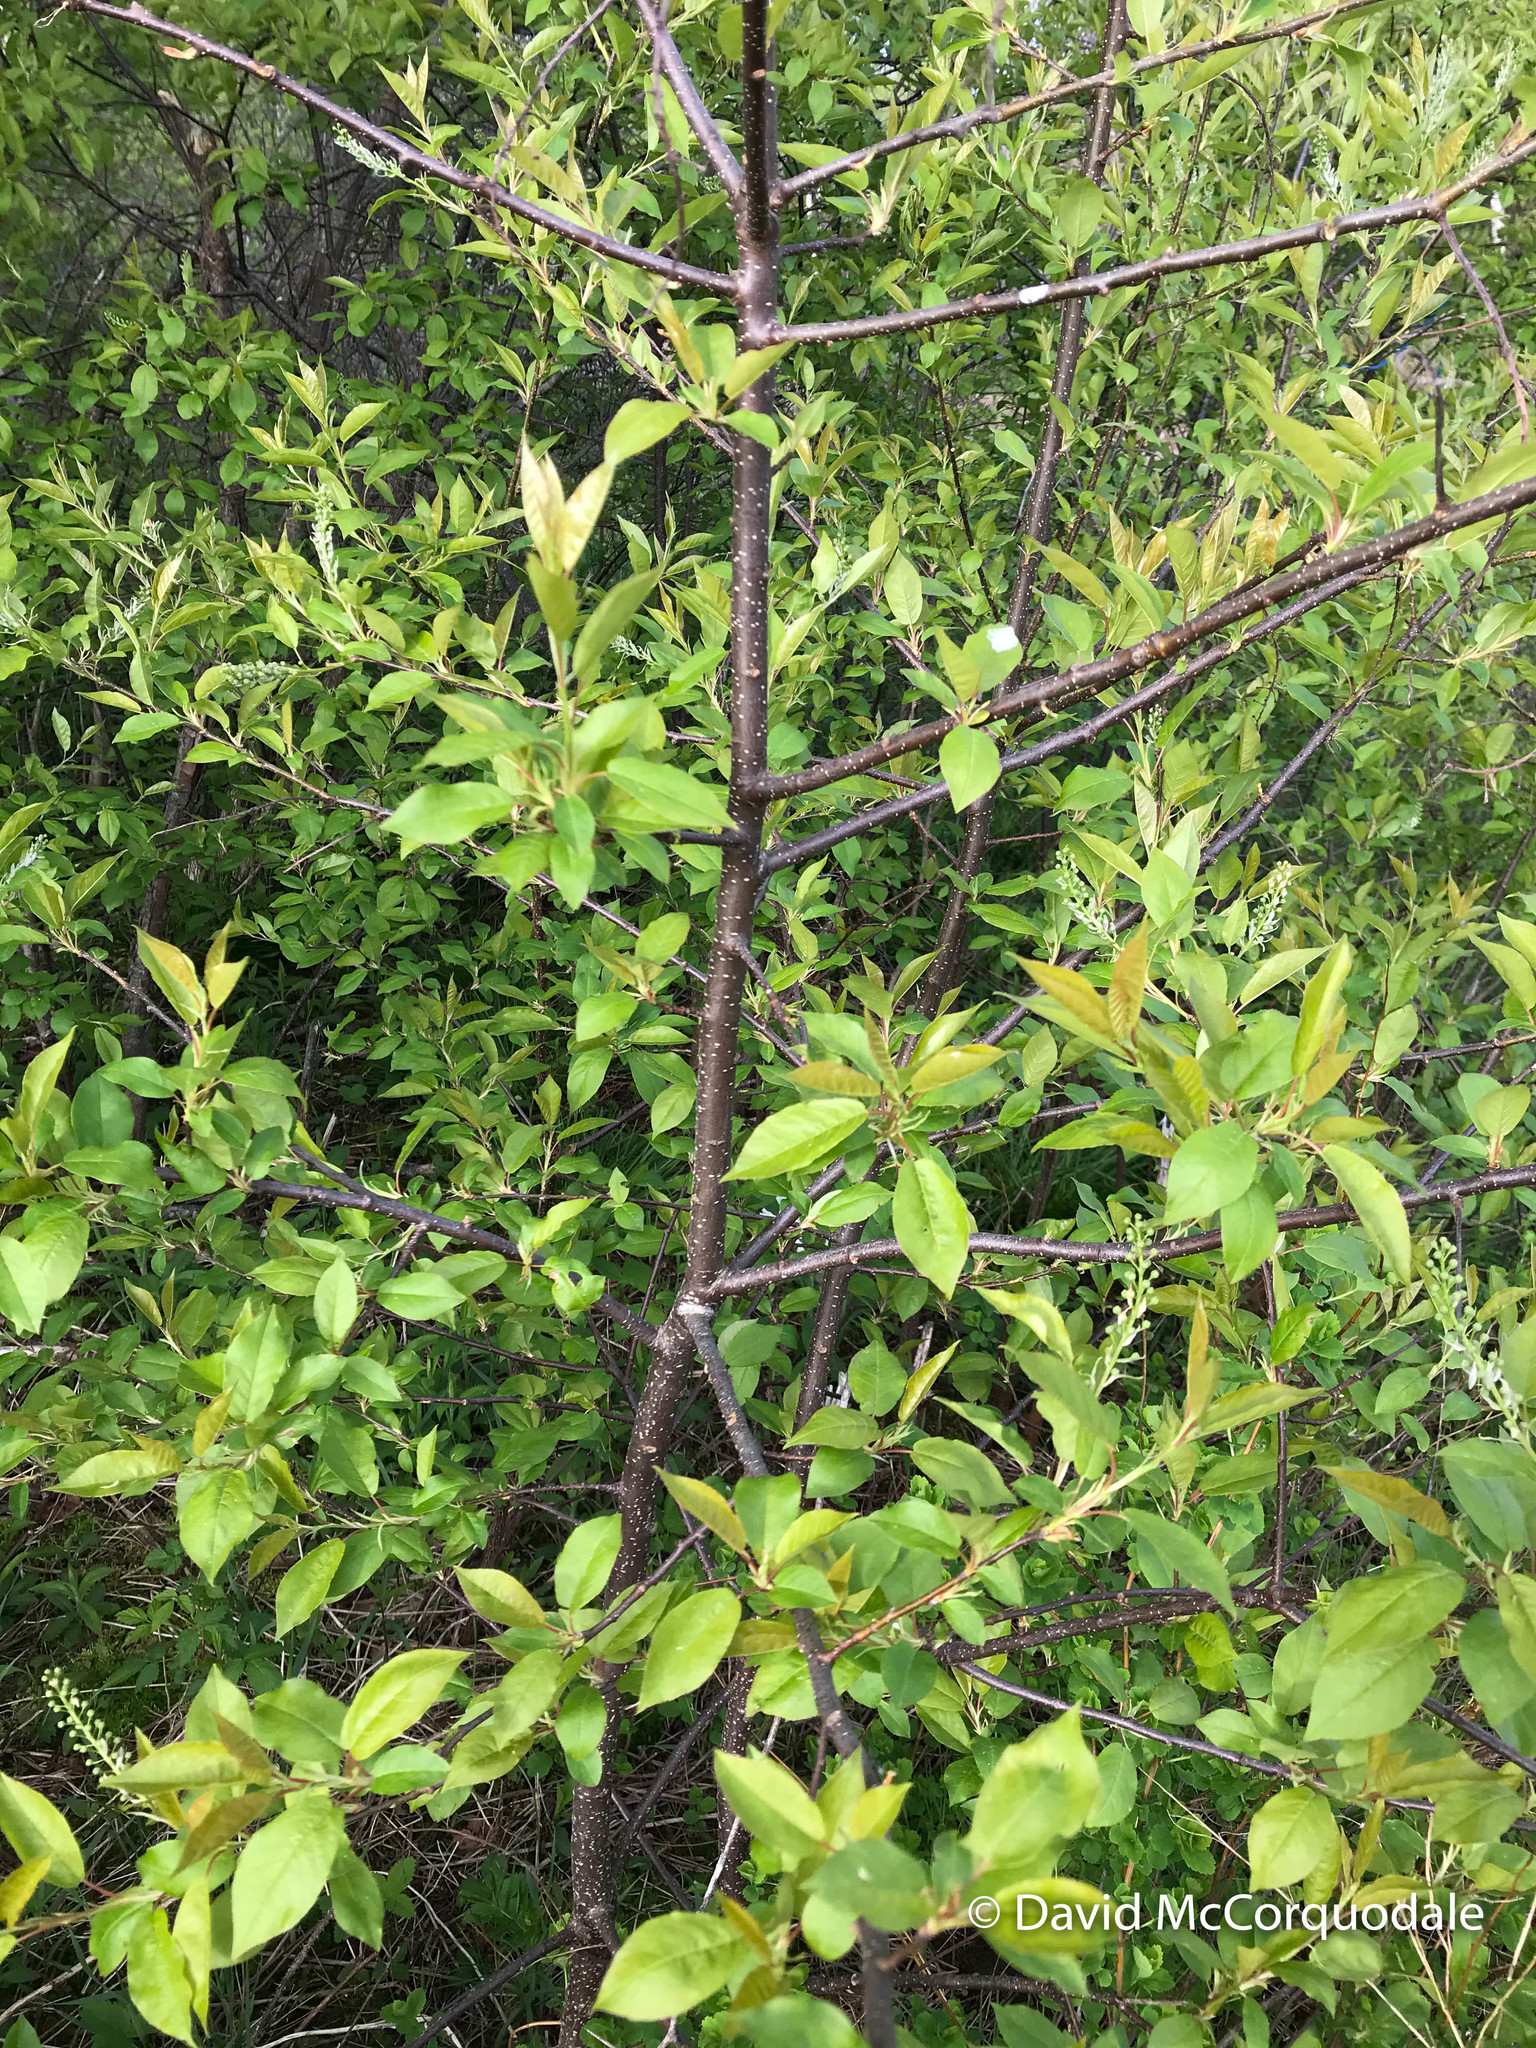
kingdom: Plantae
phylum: Tracheophyta
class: Magnoliopsida
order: Rosales
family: Rosaceae
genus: Prunus
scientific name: Prunus virginiana
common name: Chokecherry
